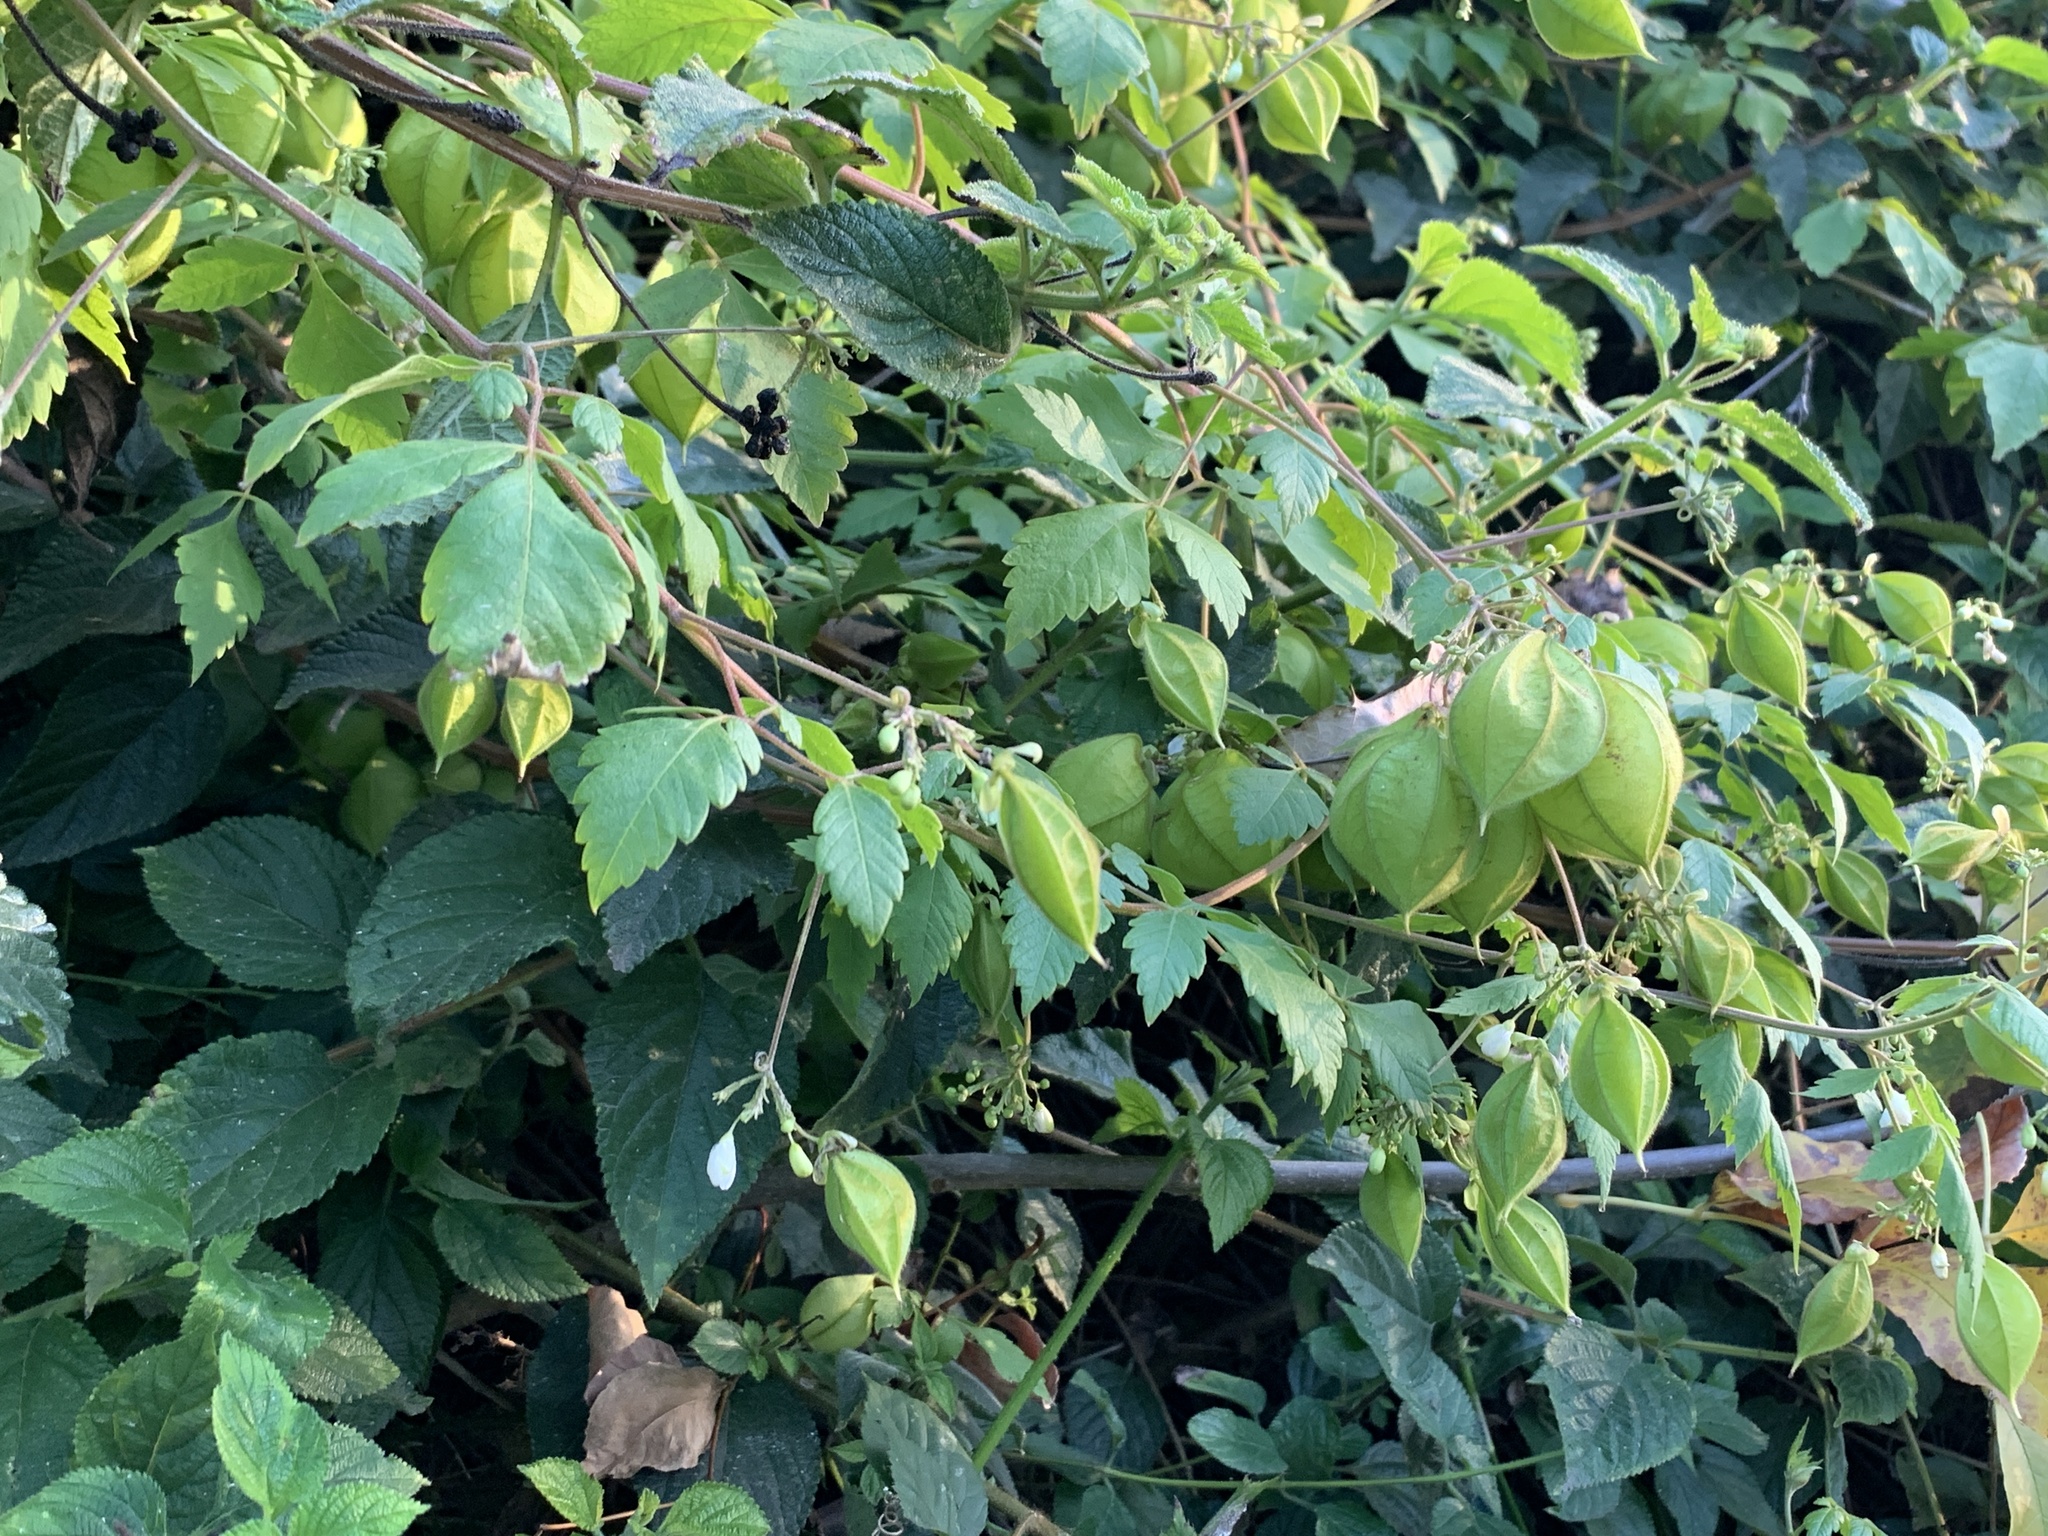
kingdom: Plantae
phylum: Tracheophyta
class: Magnoliopsida
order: Sapindales
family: Sapindaceae
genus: Cardiospermum
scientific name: Cardiospermum grandiflorum
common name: Balloon vine
